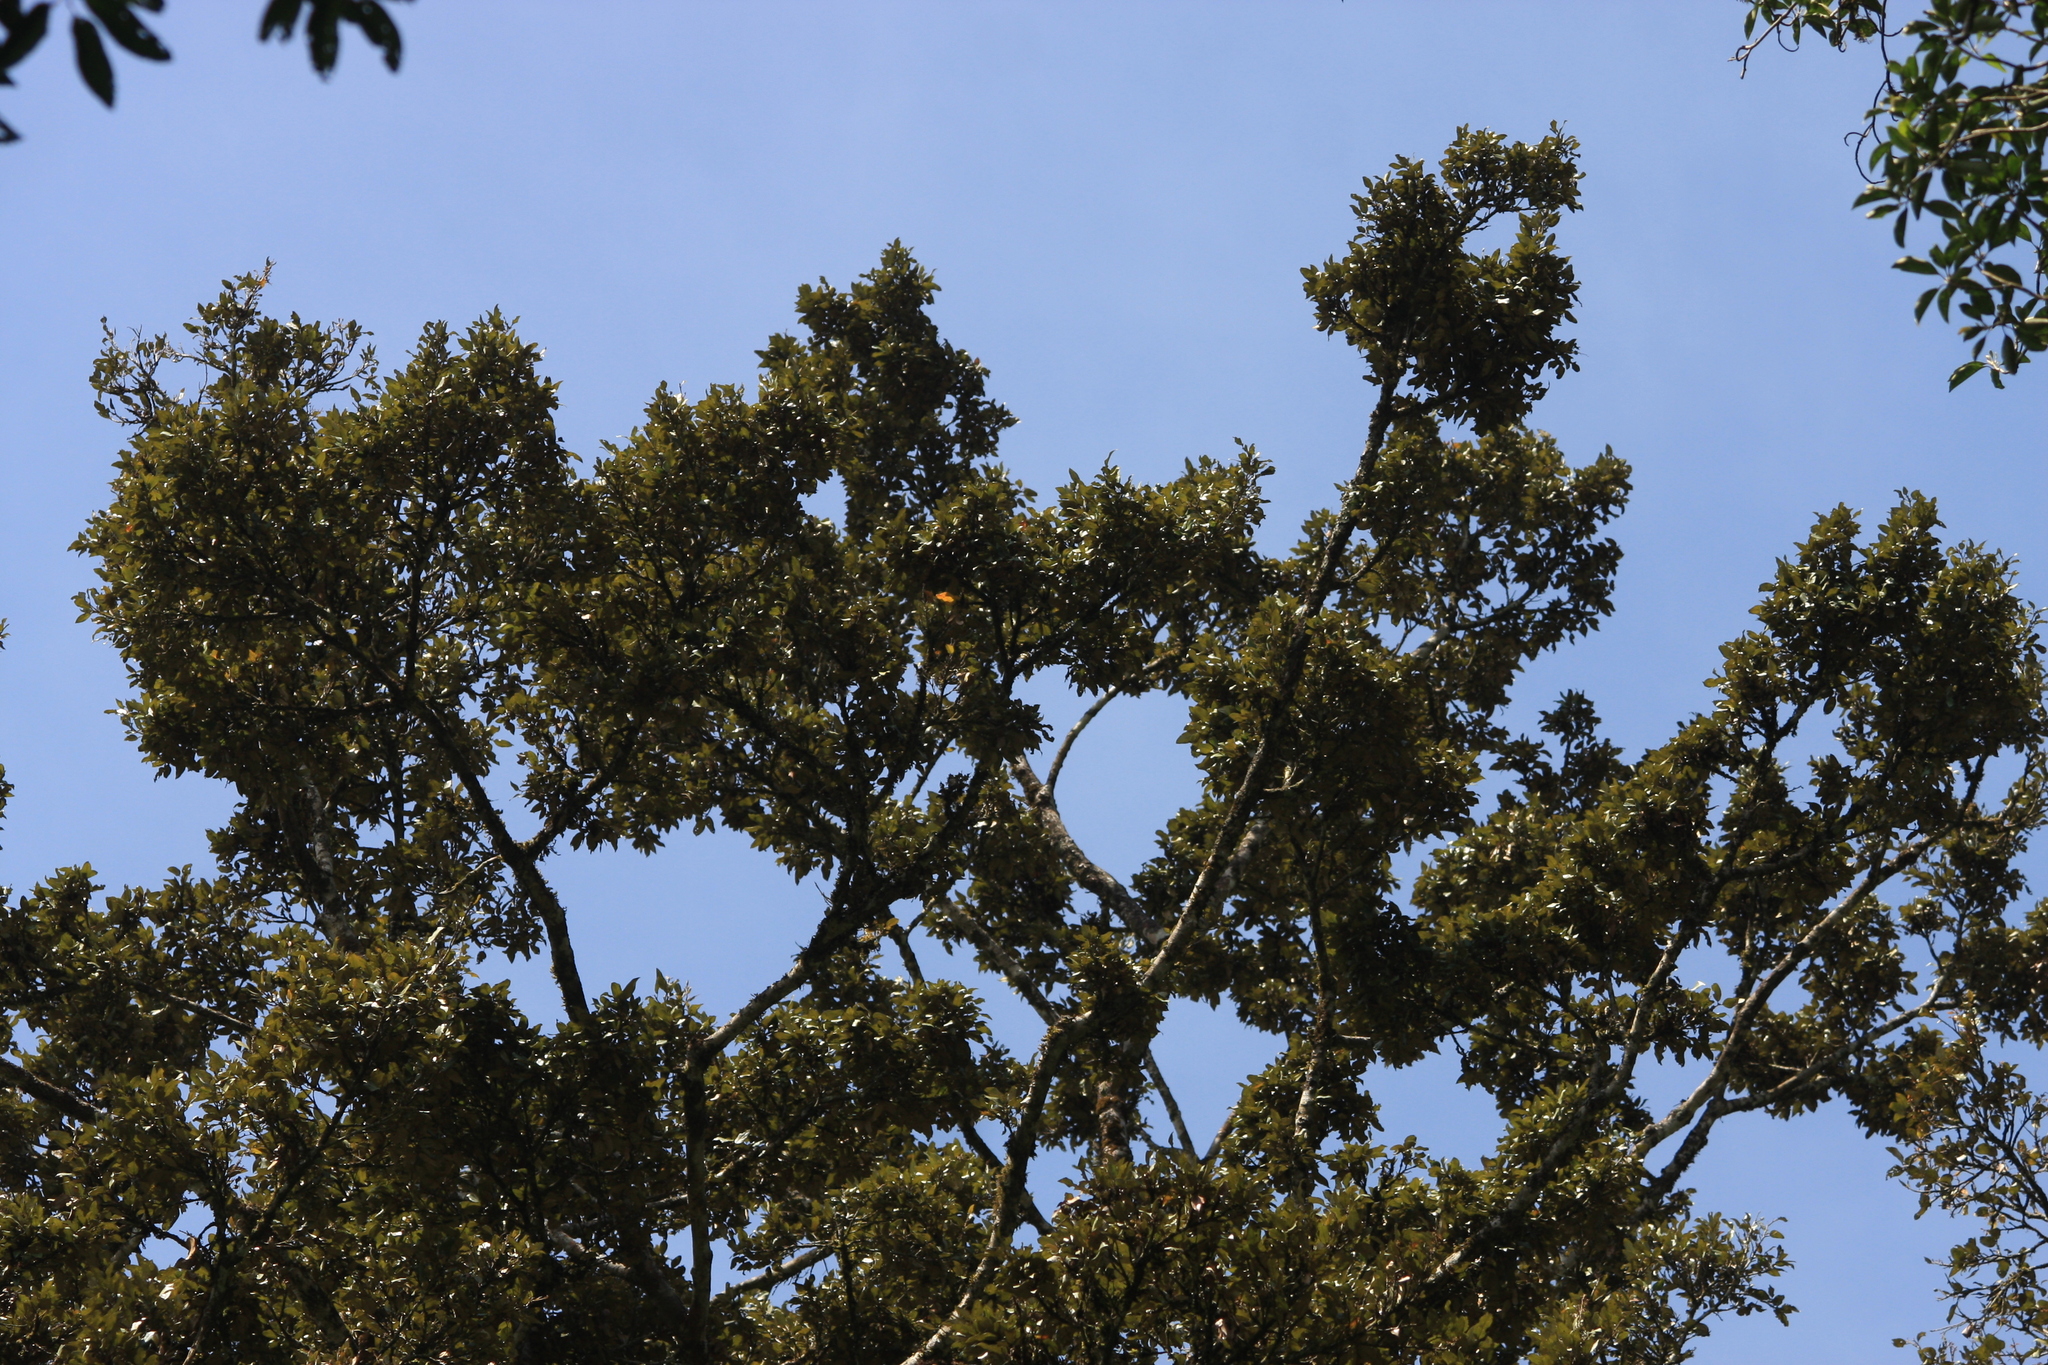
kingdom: Plantae
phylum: Tracheophyta
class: Magnoliopsida
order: Malvales
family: Malvaceae
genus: Heritiera
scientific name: Heritiera papilio
